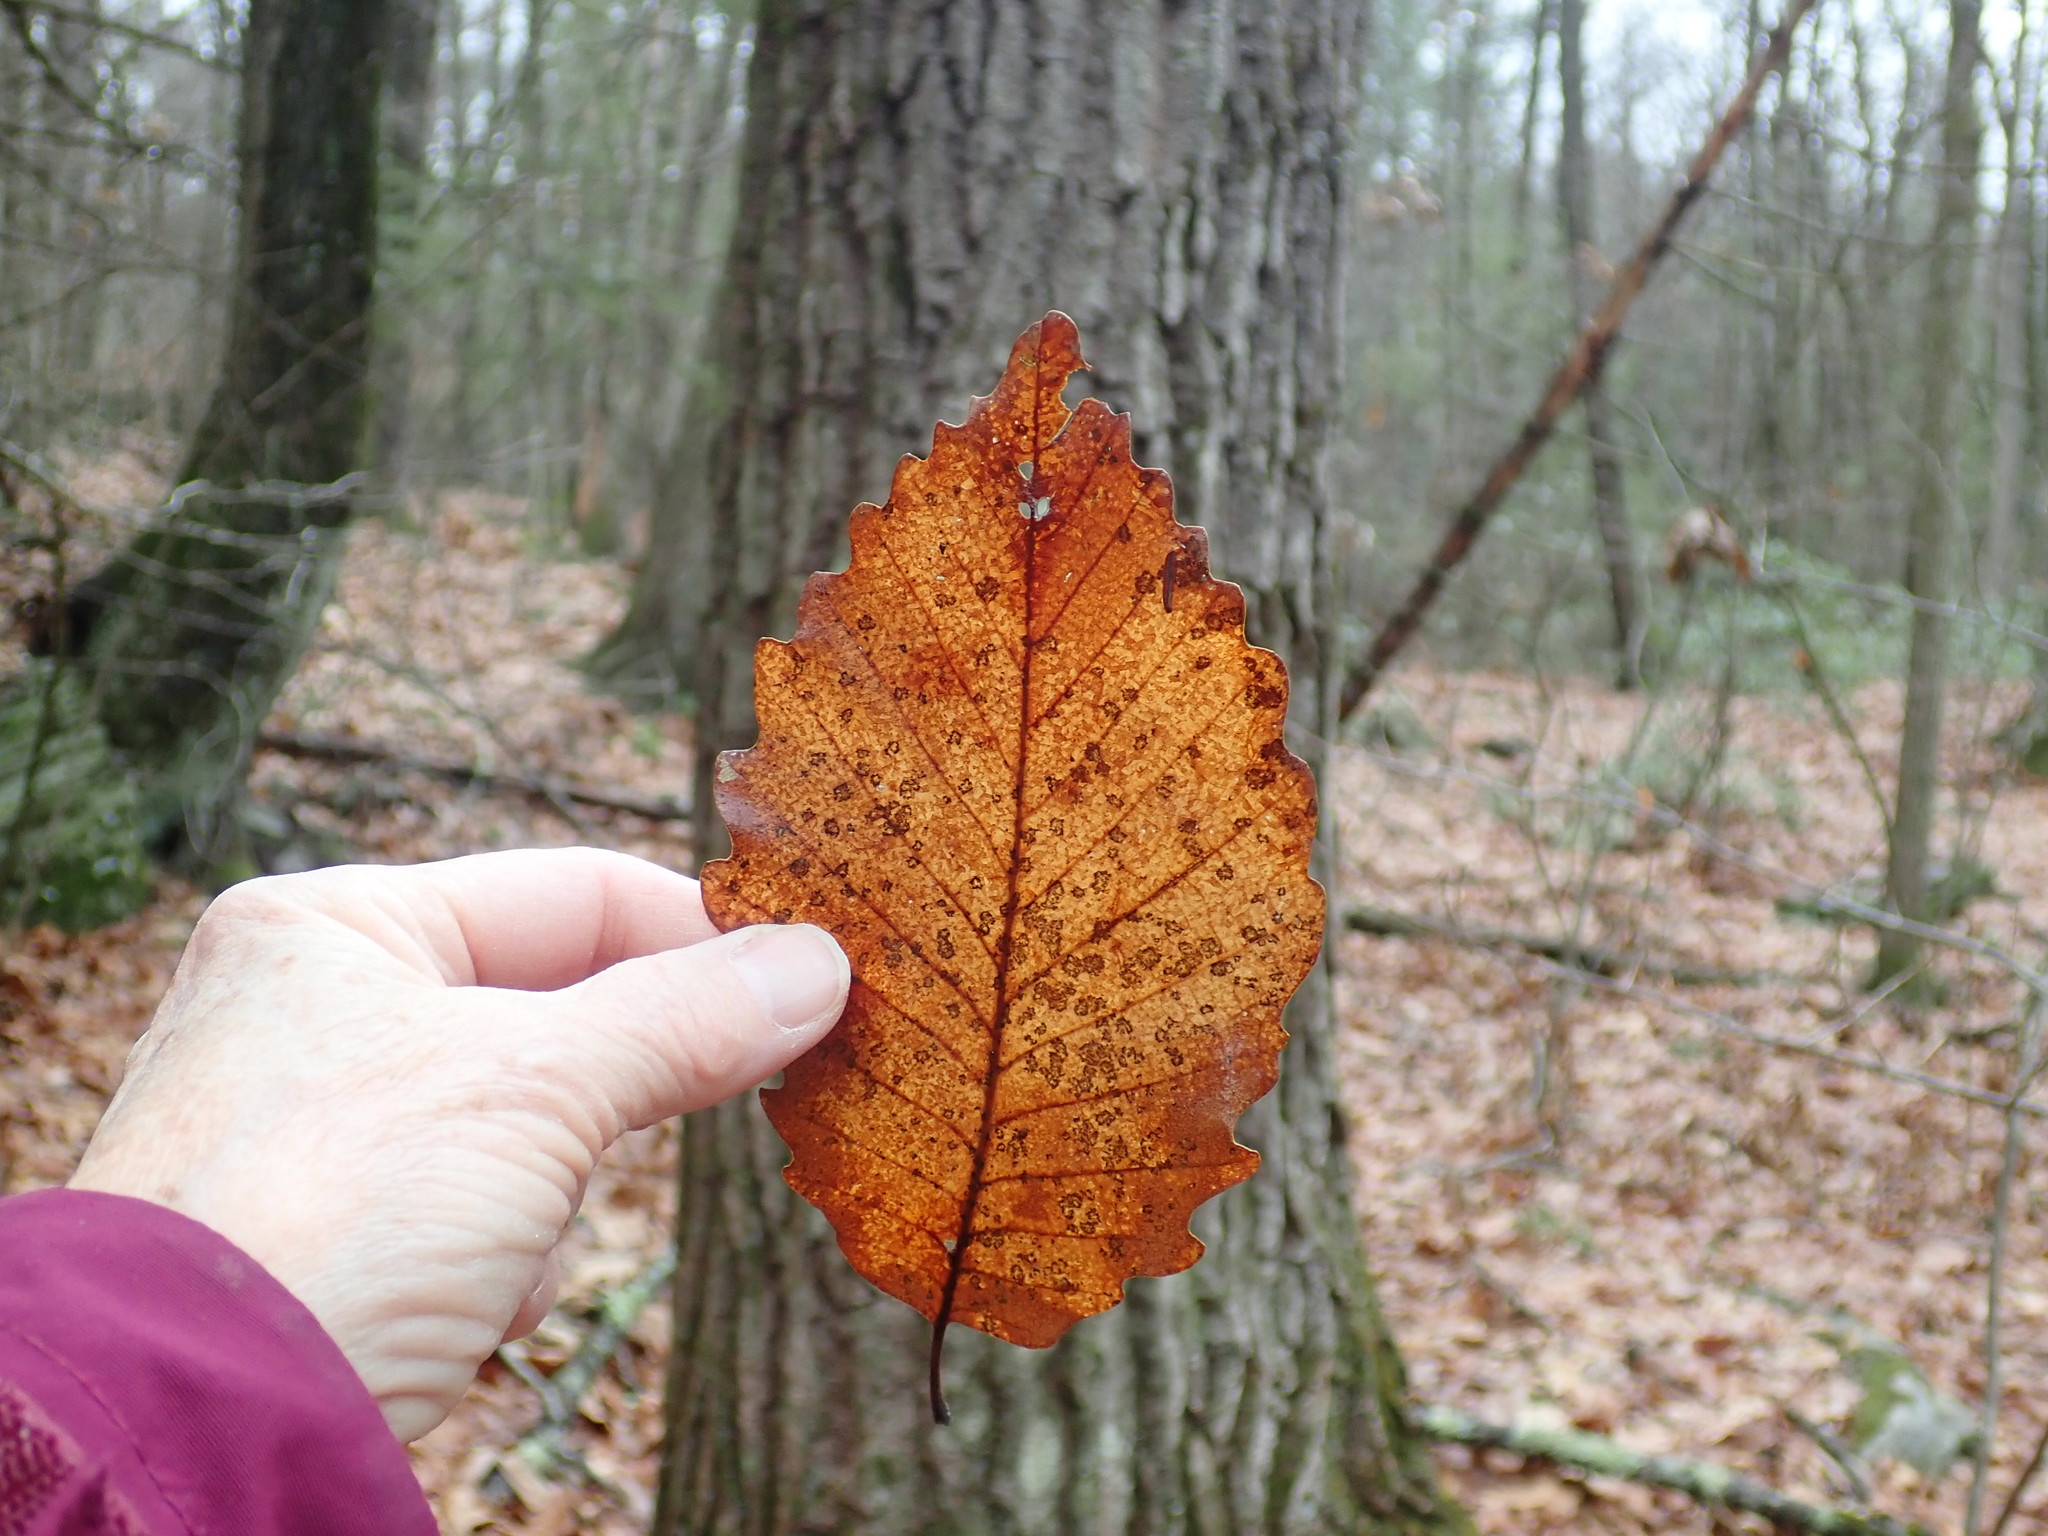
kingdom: Plantae
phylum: Tracheophyta
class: Magnoliopsida
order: Fagales
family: Fagaceae
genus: Quercus
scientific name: Quercus montana
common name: Chestnut oak
